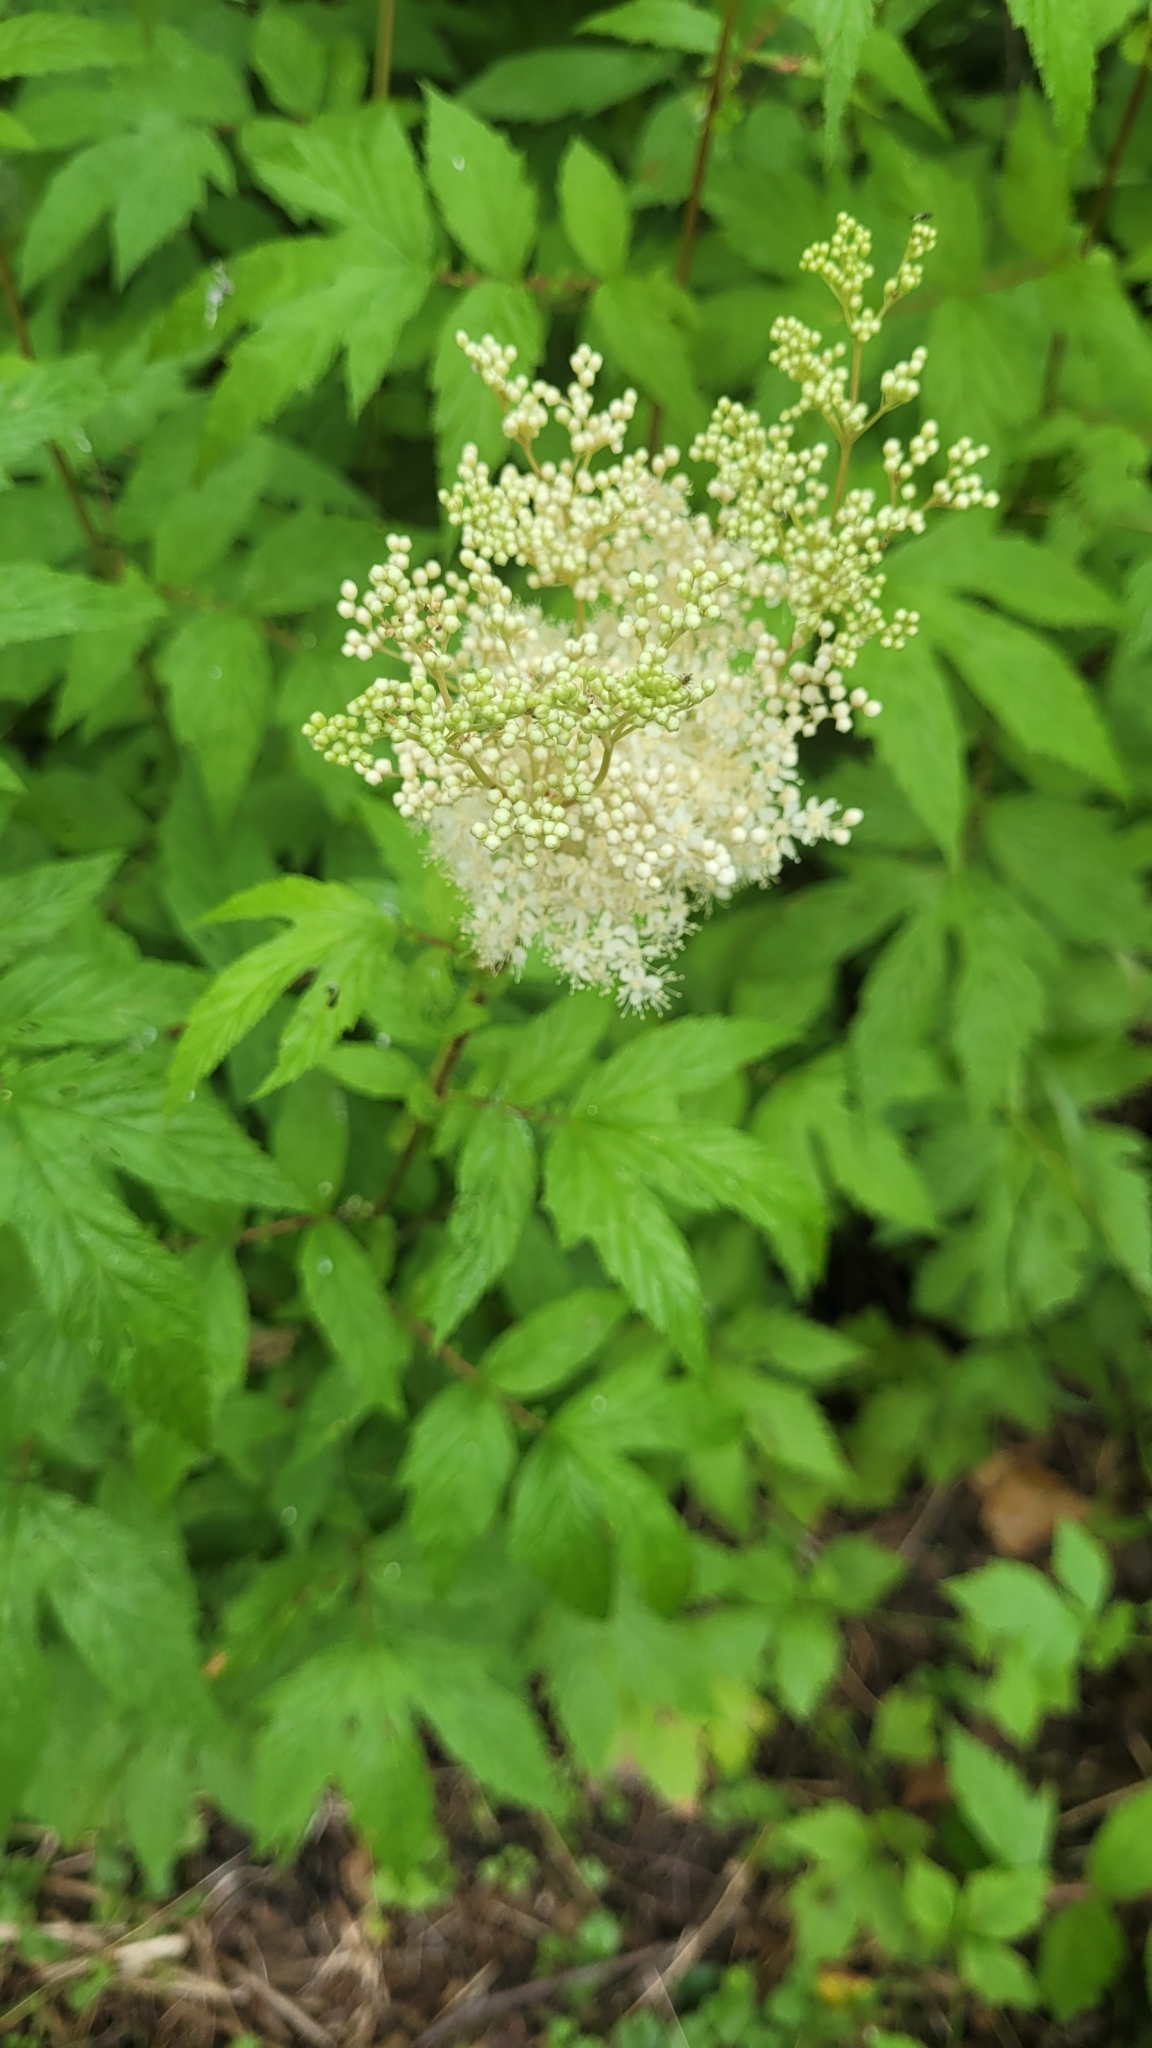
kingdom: Plantae
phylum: Tracheophyta
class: Magnoliopsida
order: Rosales
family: Rosaceae
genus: Filipendula
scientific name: Filipendula ulmaria
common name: Meadowsweet
